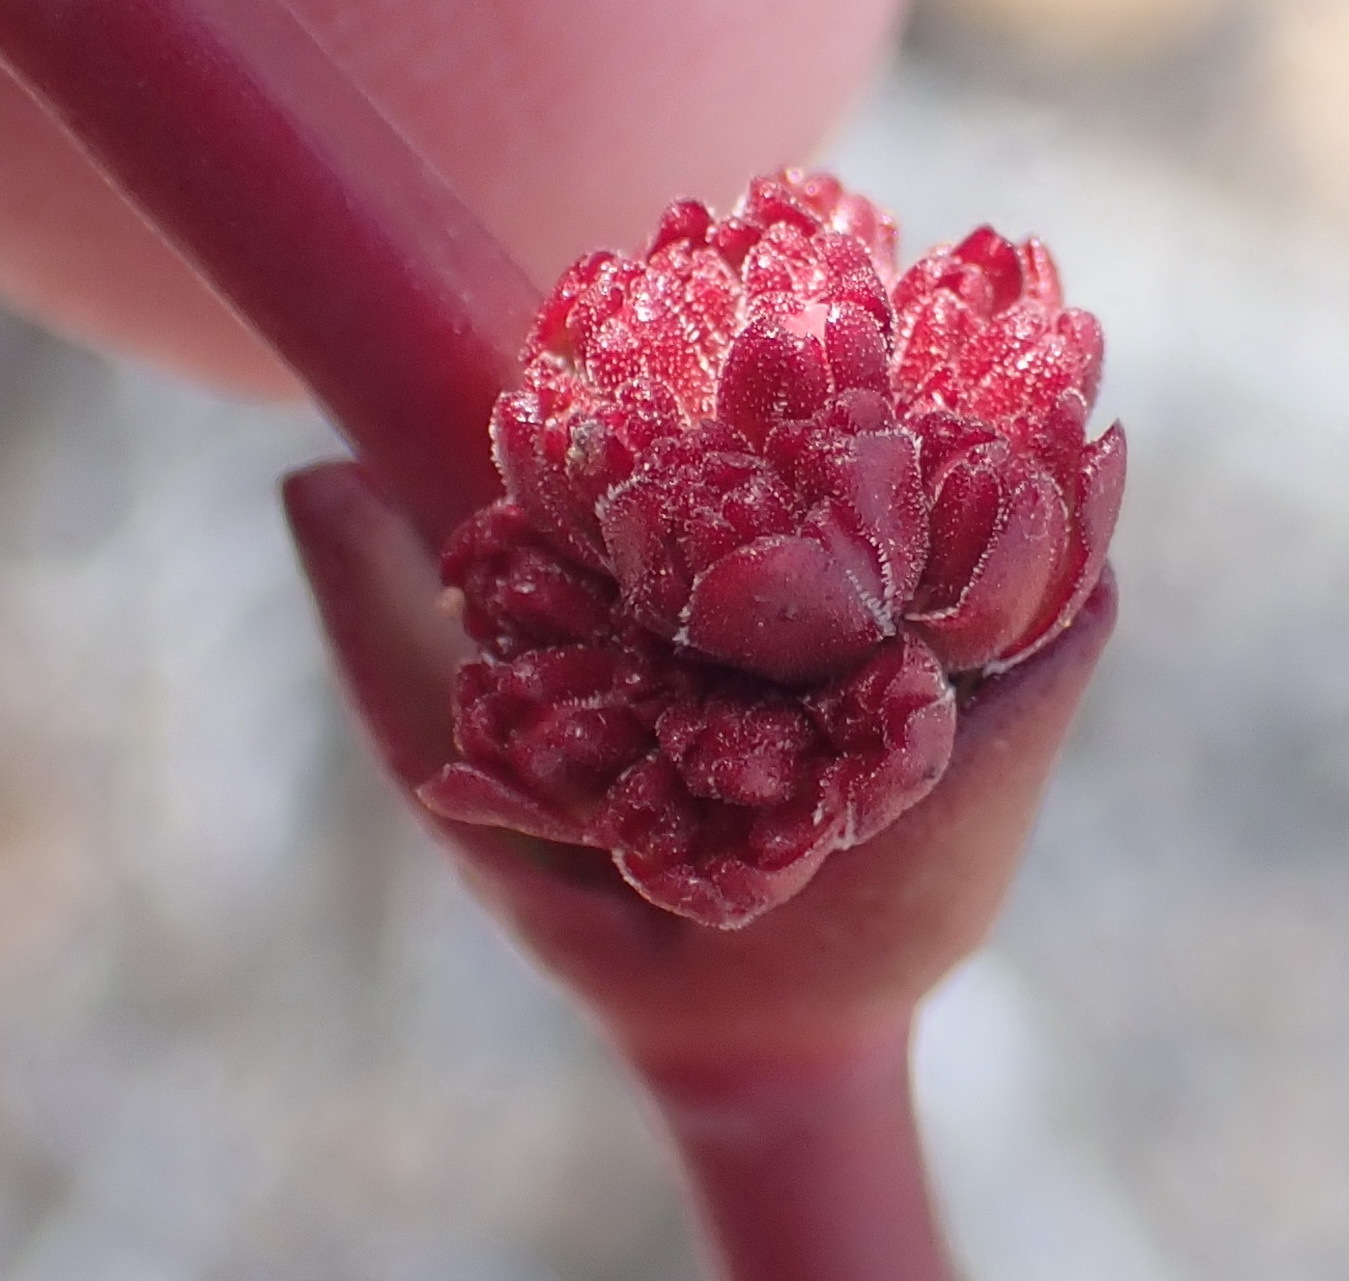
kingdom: Plantae
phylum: Tracheophyta
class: Magnoliopsida
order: Saxifragales
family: Crassulaceae
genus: Crassula
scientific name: Crassula nudicaulis
